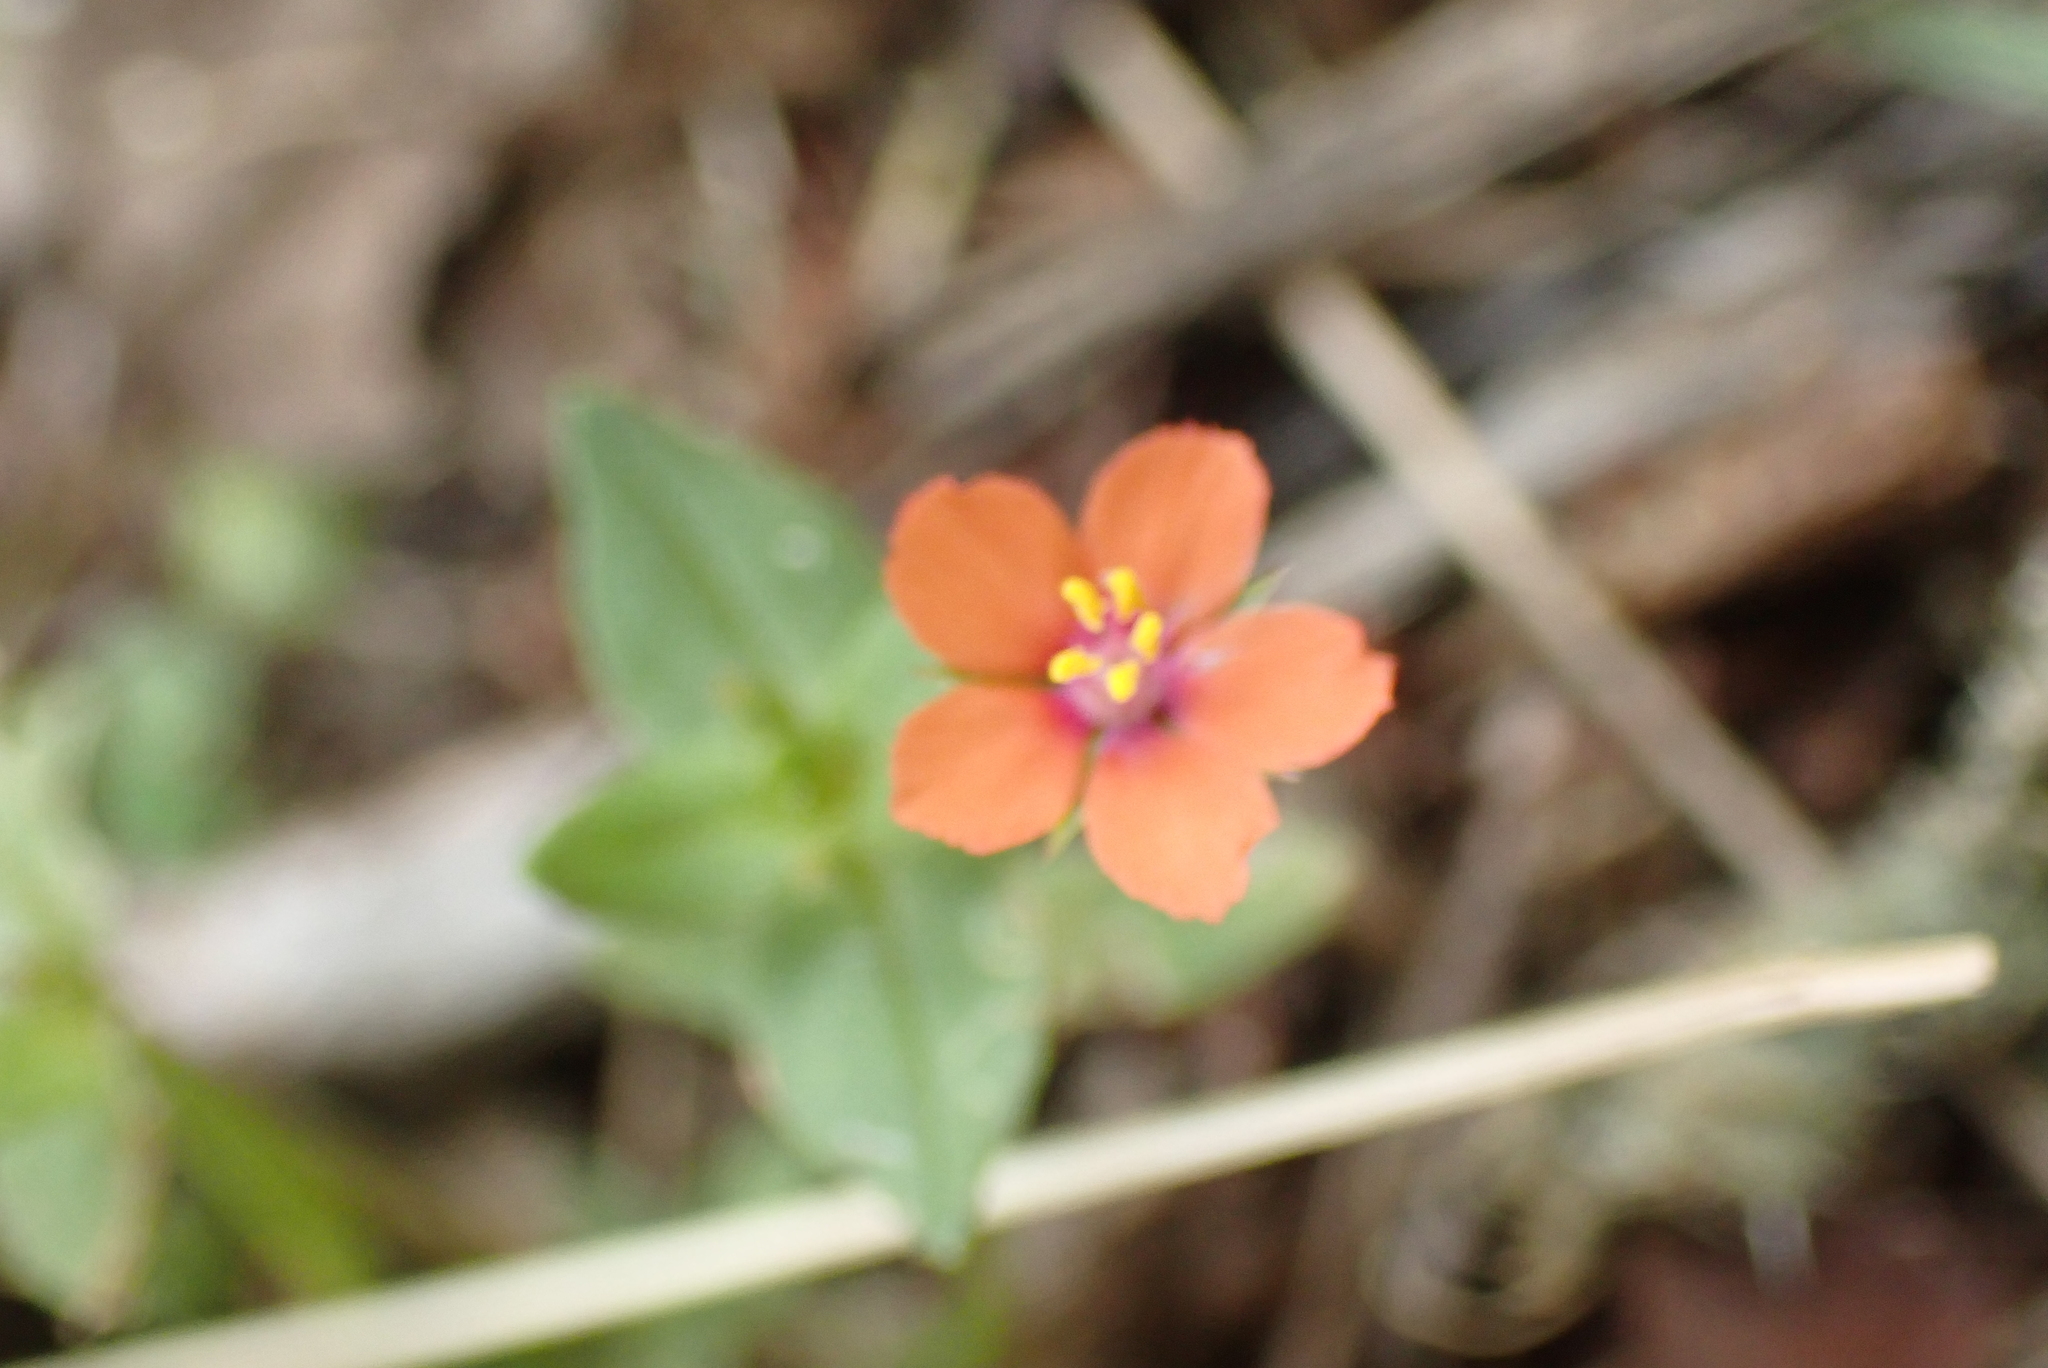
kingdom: Plantae
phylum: Tracheophyta
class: Magnoliopsida
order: Ericales
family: Primulaceae
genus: Lysimachia
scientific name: Lysimachia arvensis
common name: Scarlet pimpernel
